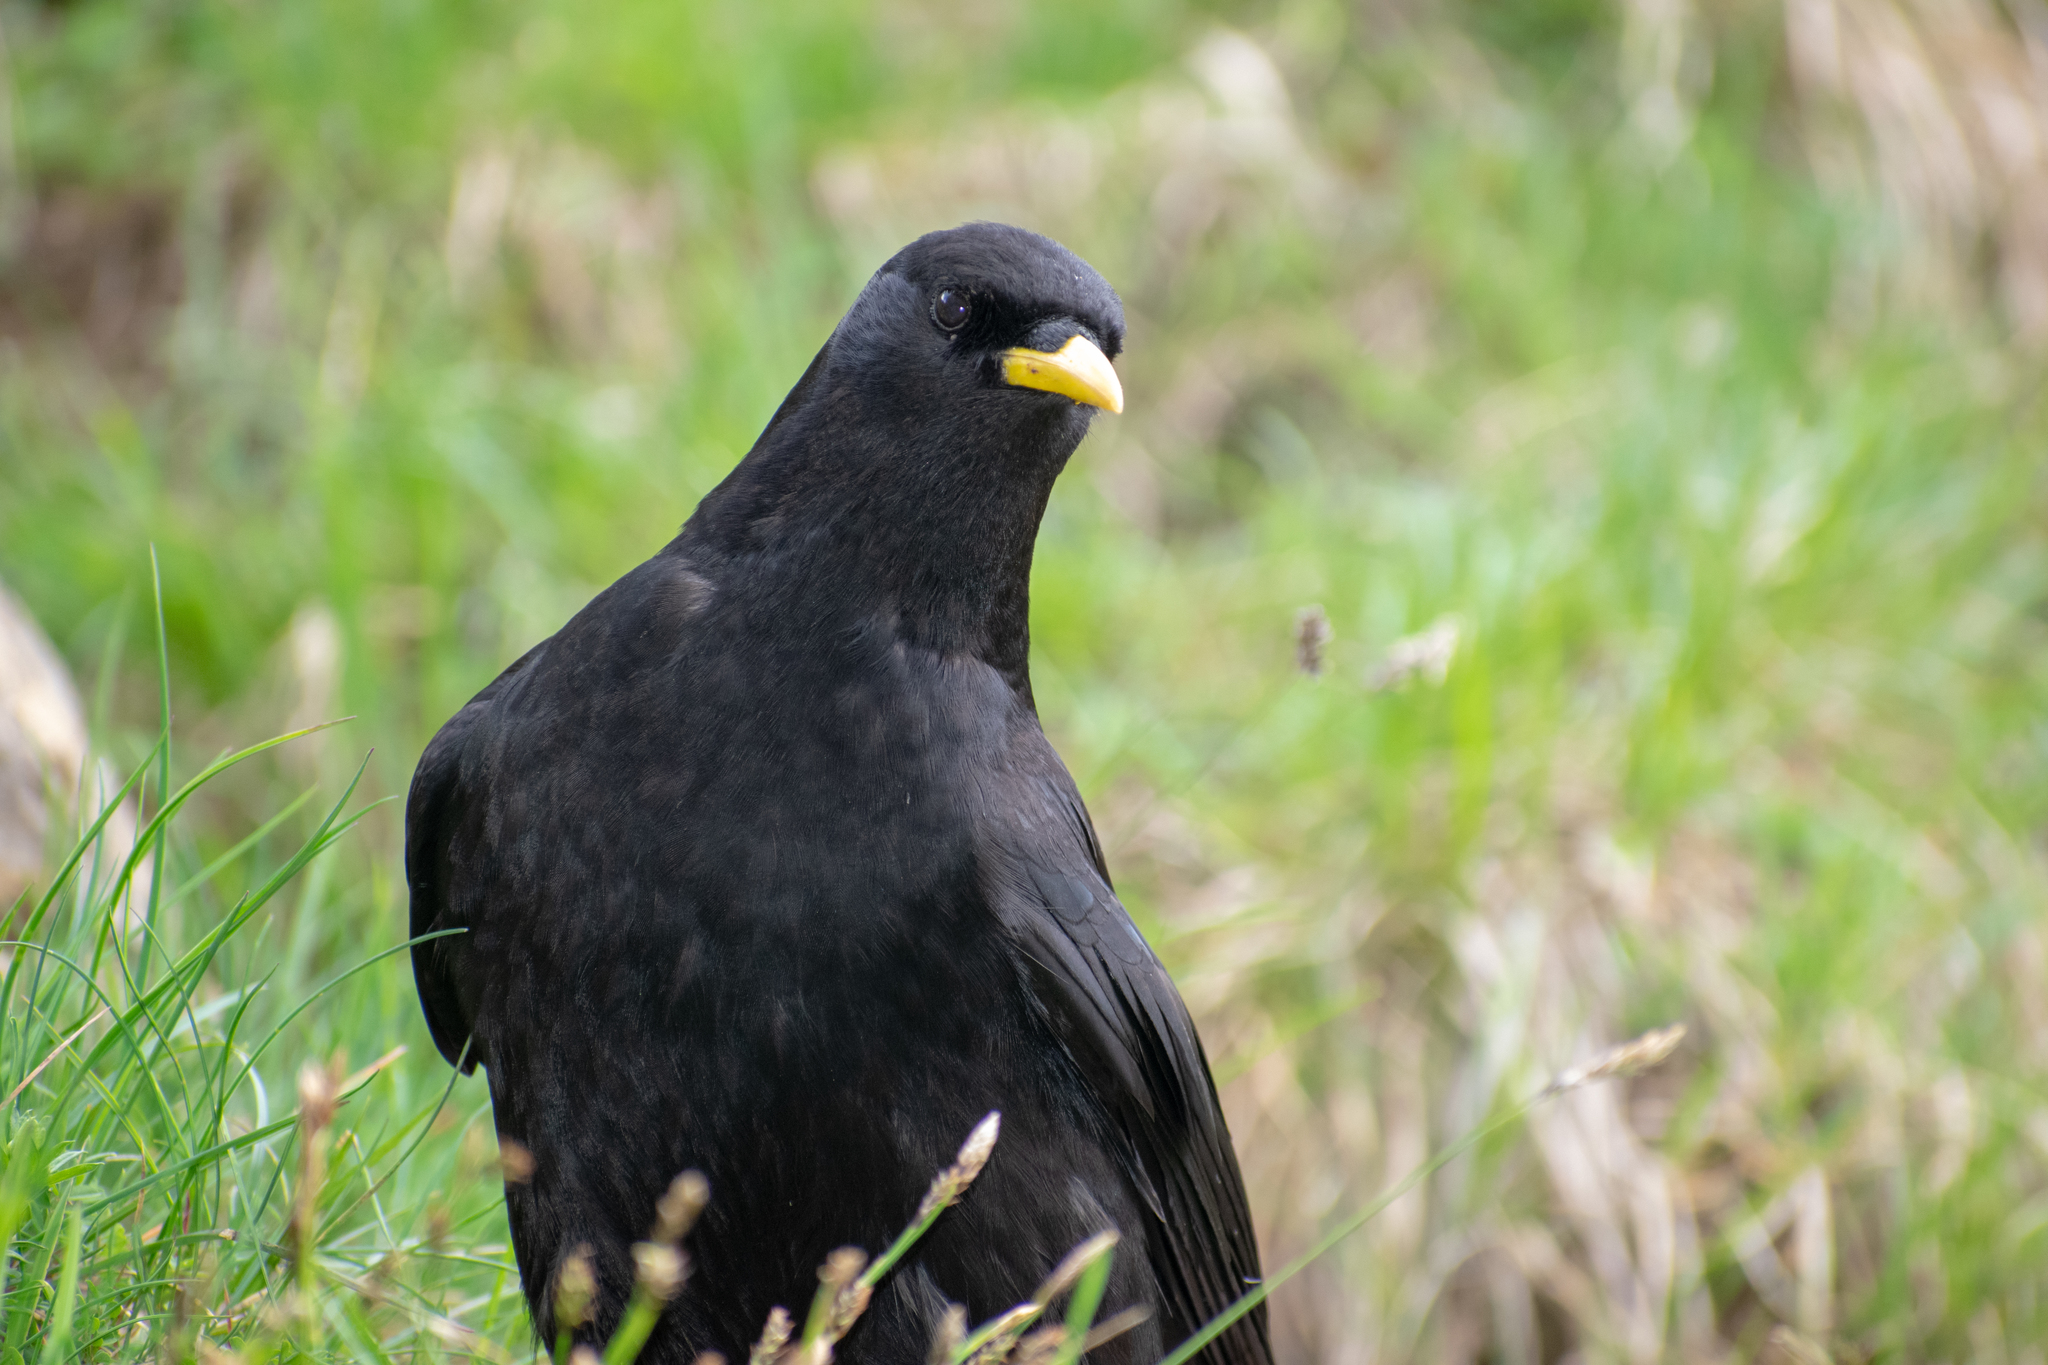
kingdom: Animalia
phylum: Chordata
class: Aves
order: Passeriformes
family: Corvidae
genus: Pyrrhocorax
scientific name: Pyrrhocorax graculus
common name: Alpine chough
